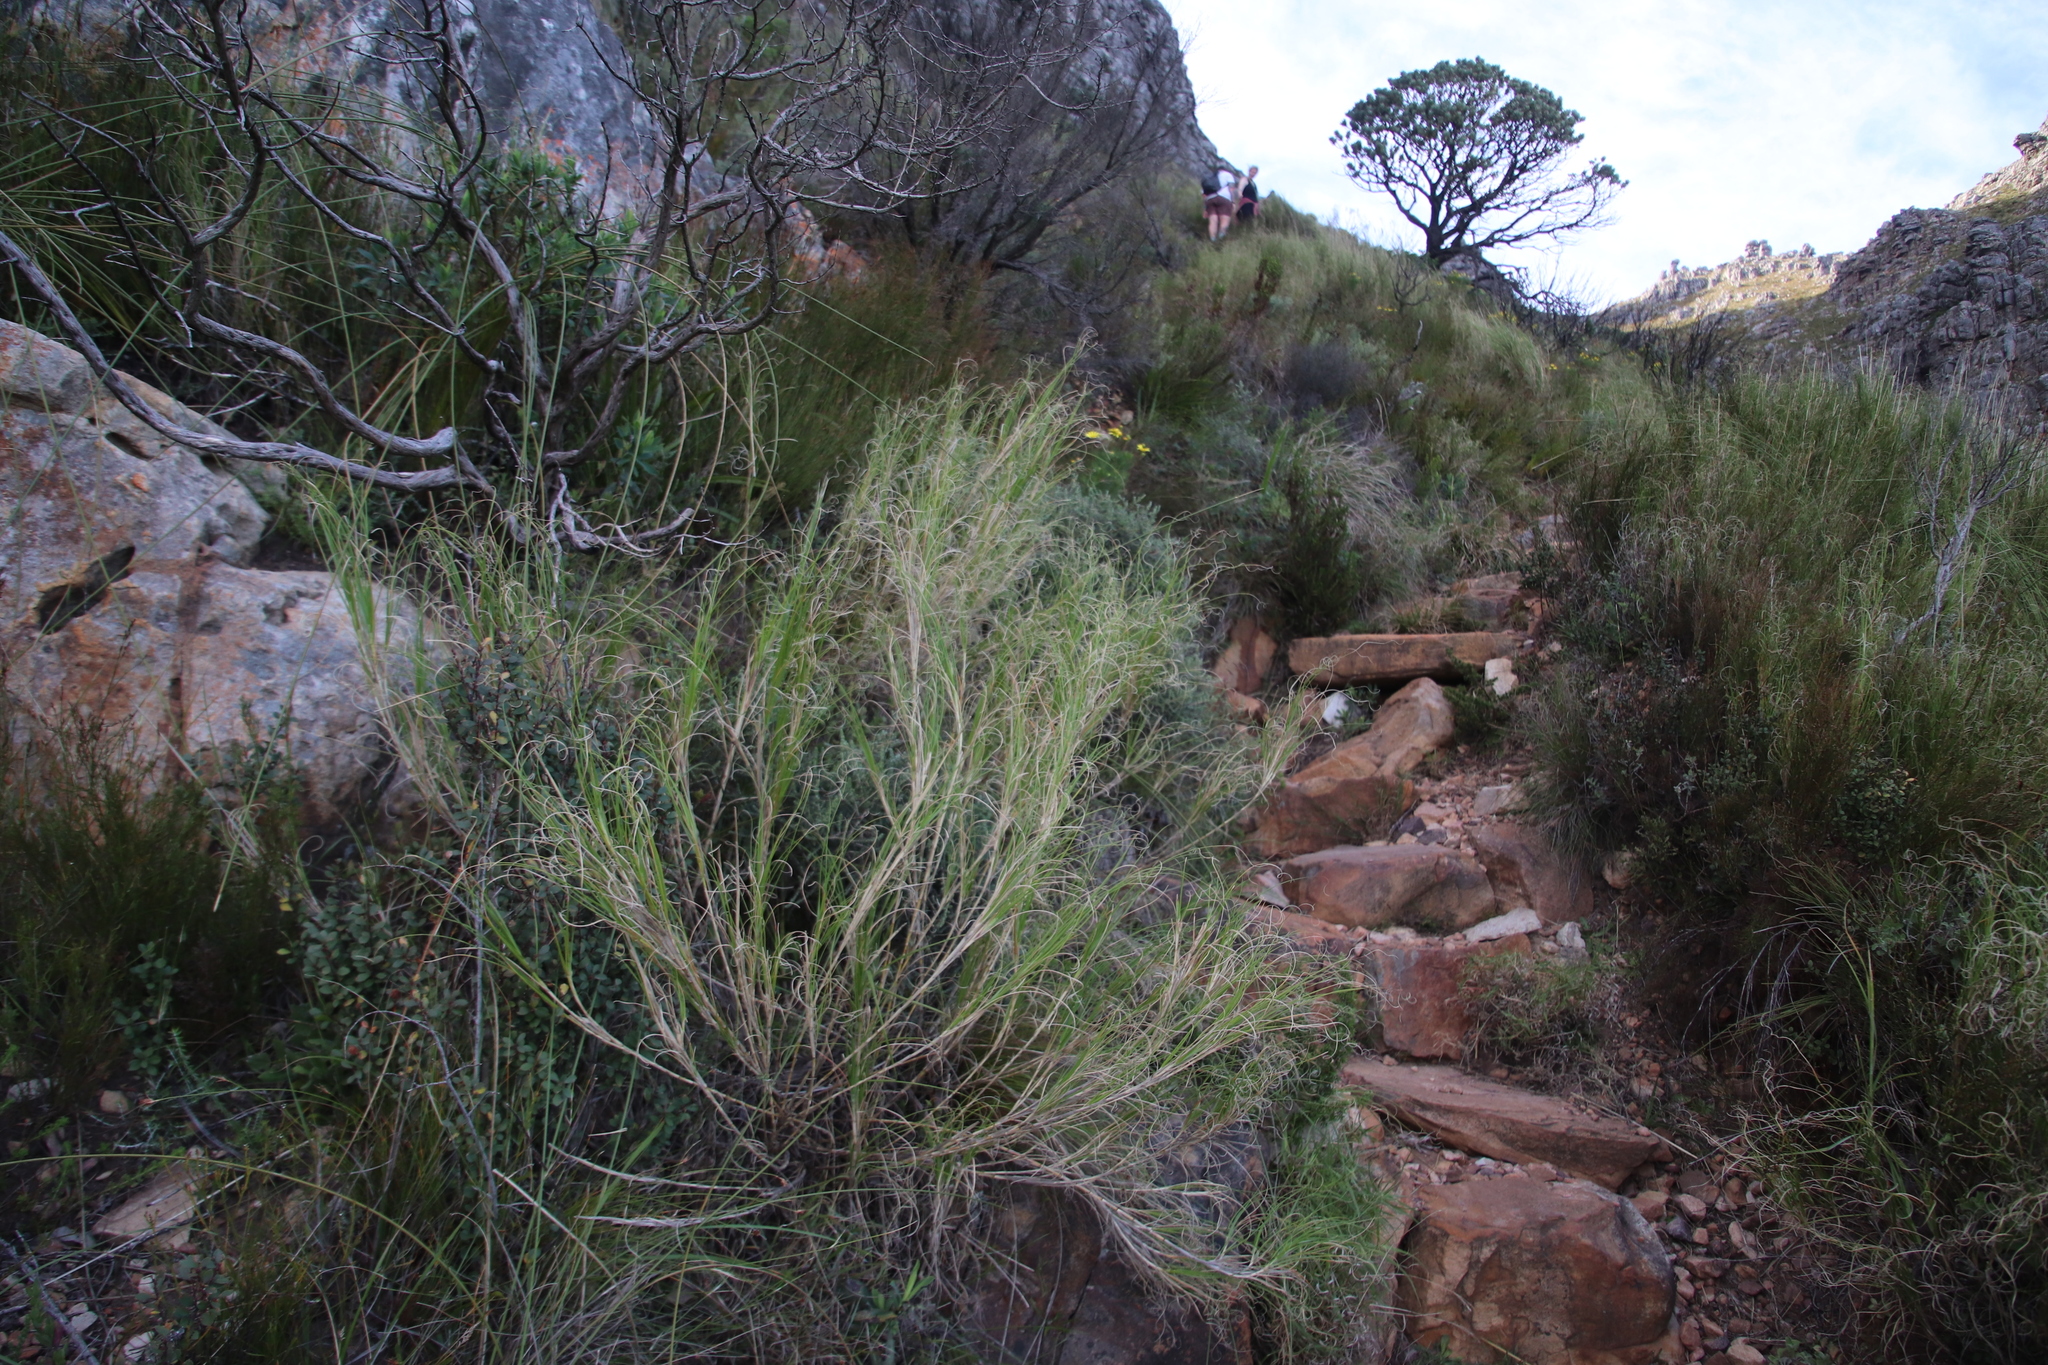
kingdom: Plantae
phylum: Tracheophyta
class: Liliopsida
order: Poales
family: Poaceae
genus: Pseudopentameris
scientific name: Pseudopentameris macrantha
